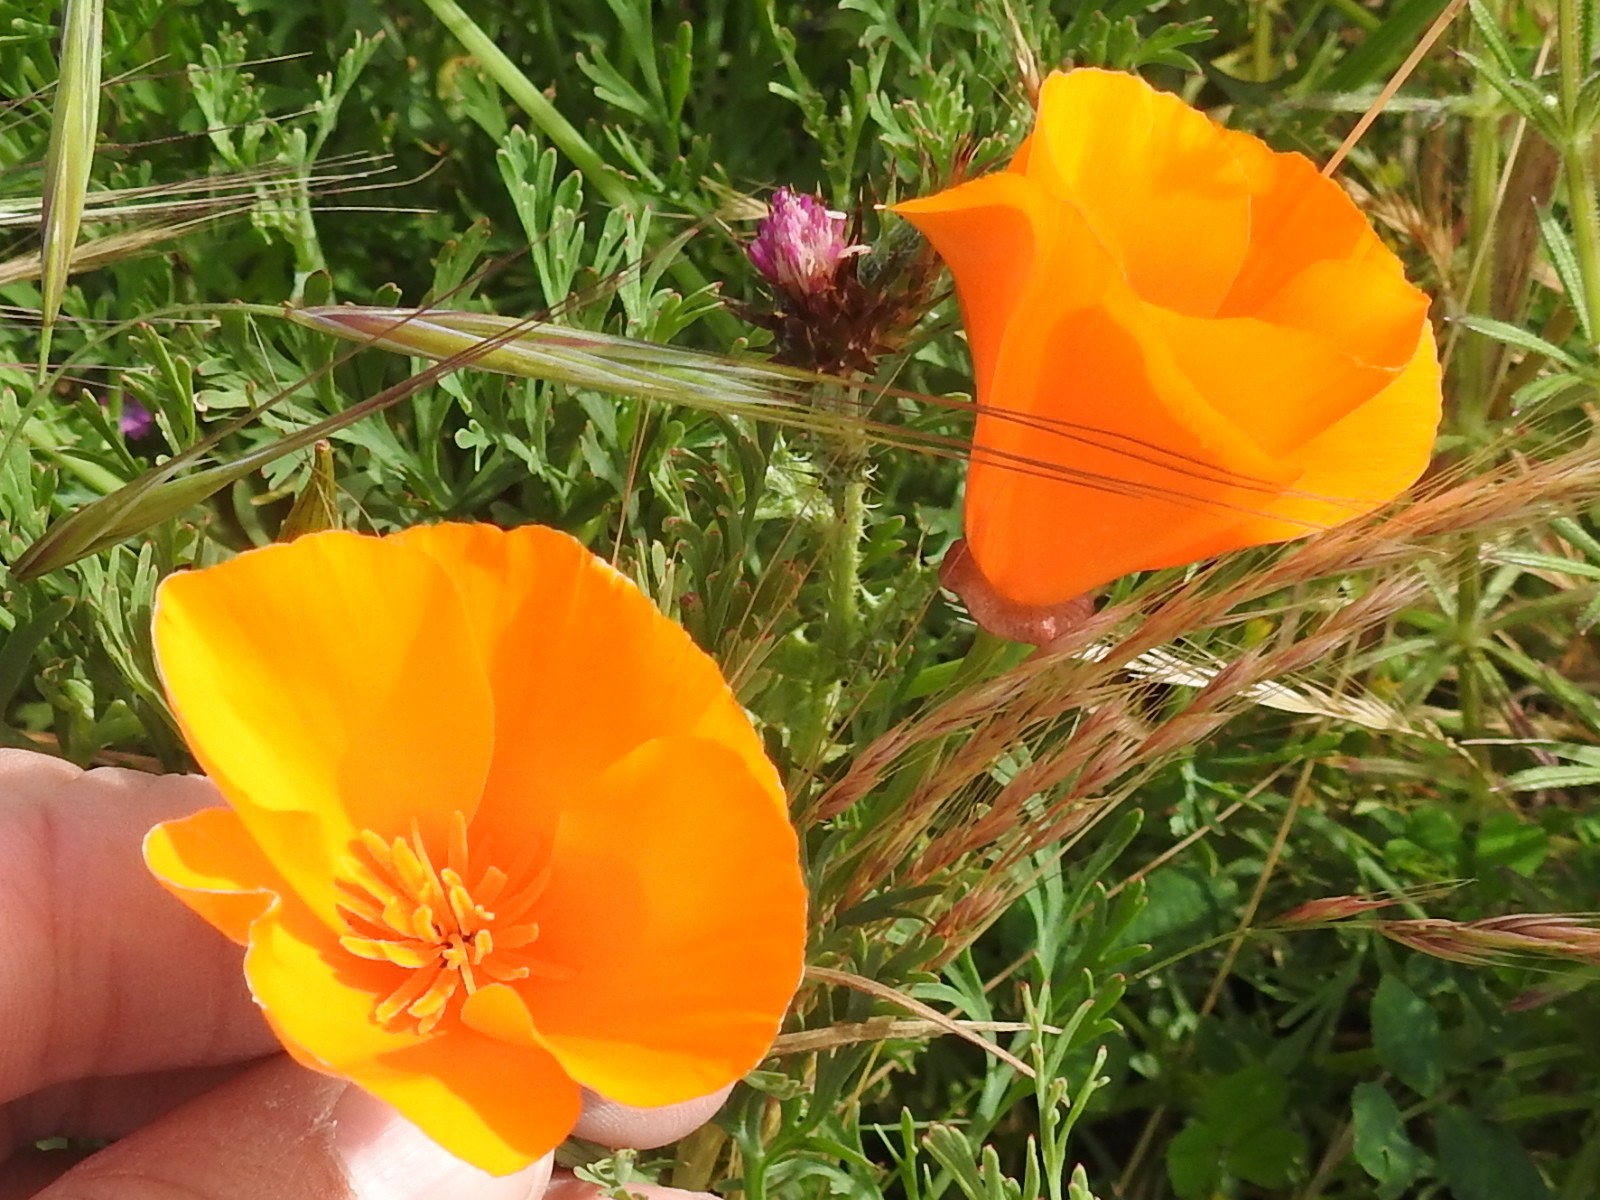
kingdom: Plantae
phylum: Tracheophyta
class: Magnoliopsida
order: Ranunculales
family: Papaveraceae
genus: Eschscholzia
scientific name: Eschscholzia californica
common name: California poppy
